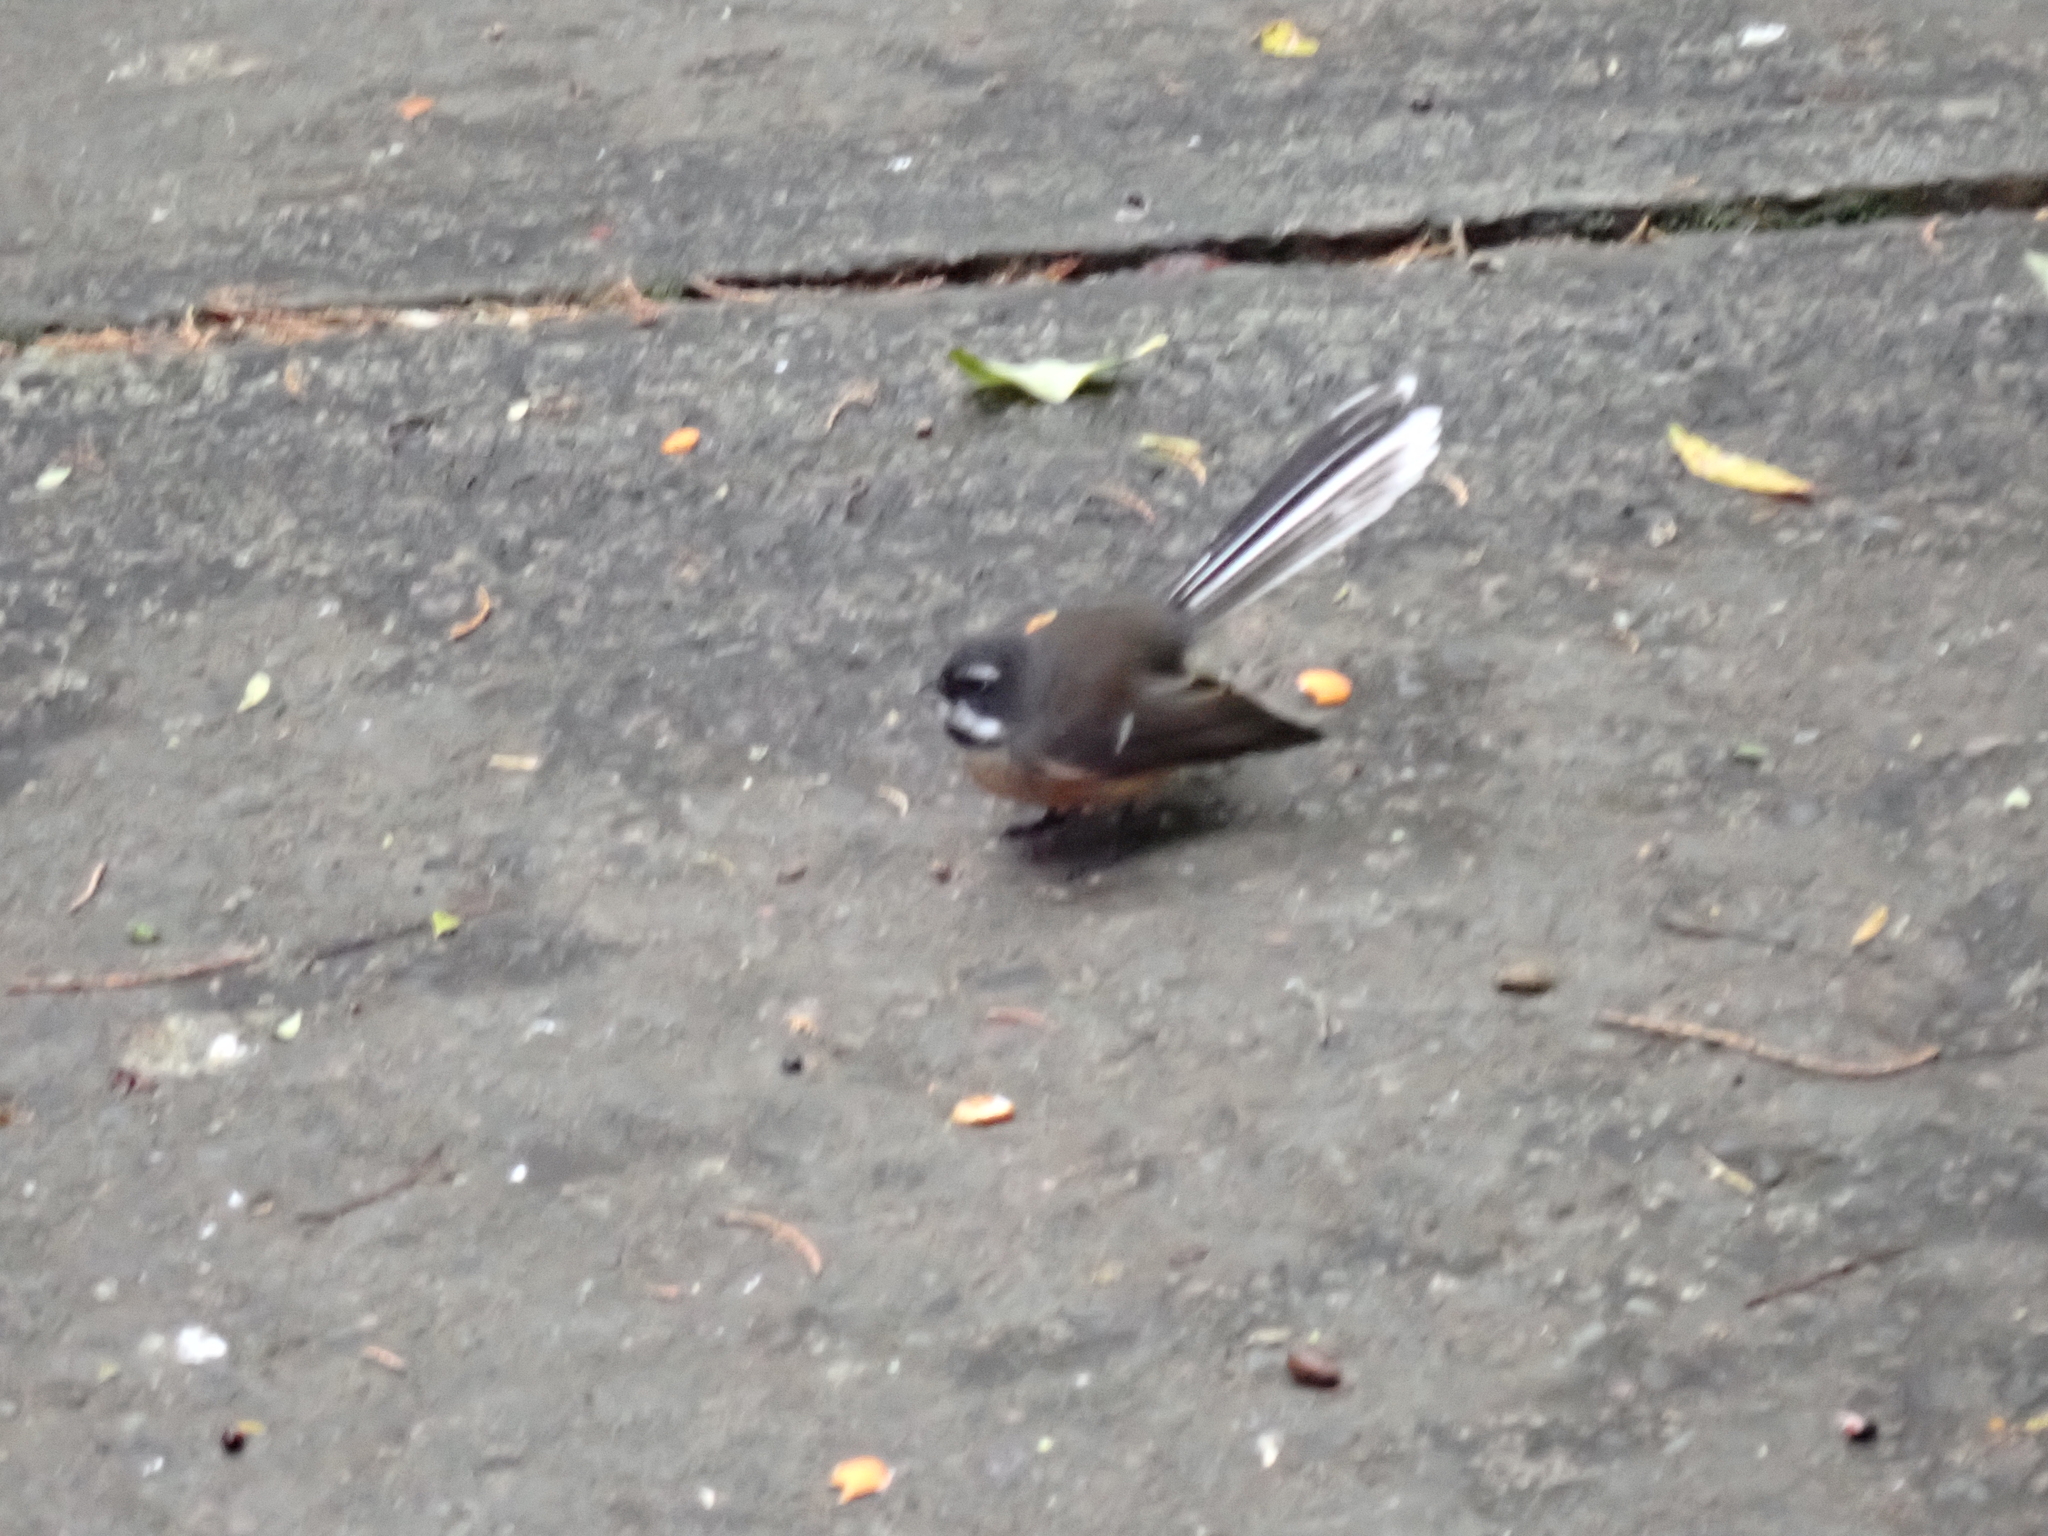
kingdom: Animalia
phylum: Chordata
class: Aves
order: Passeriformes
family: Rhipiduridae
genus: Rhipidura
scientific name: Rhipidura fuliginosa
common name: New zealand fantail
